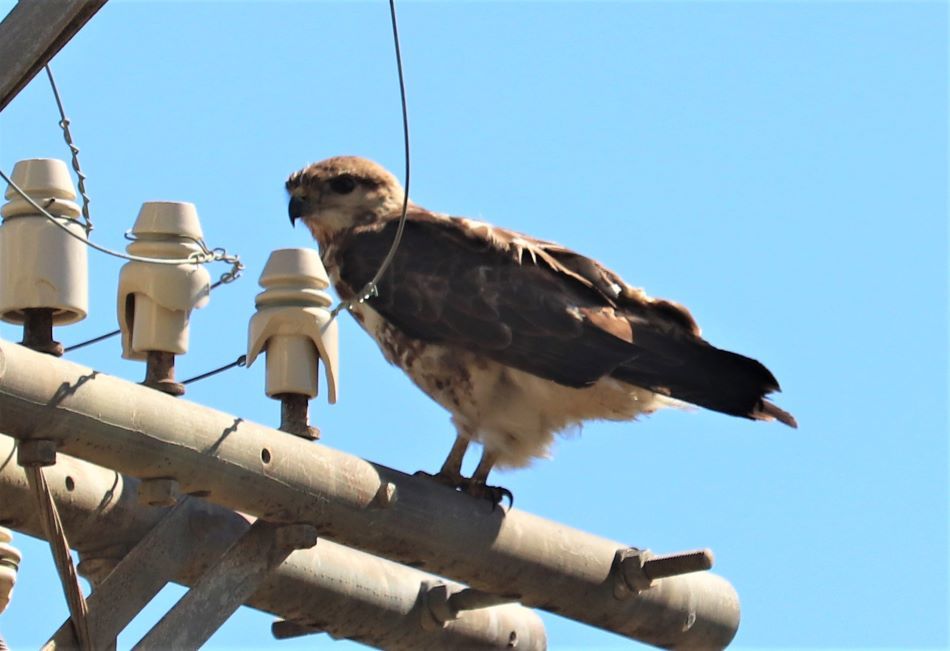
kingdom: Animalia
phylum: Chordata
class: Aves
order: Accipitriformes
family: Accipitridae
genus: Buteo
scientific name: Buteo trizonatus
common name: Forest buzzard
